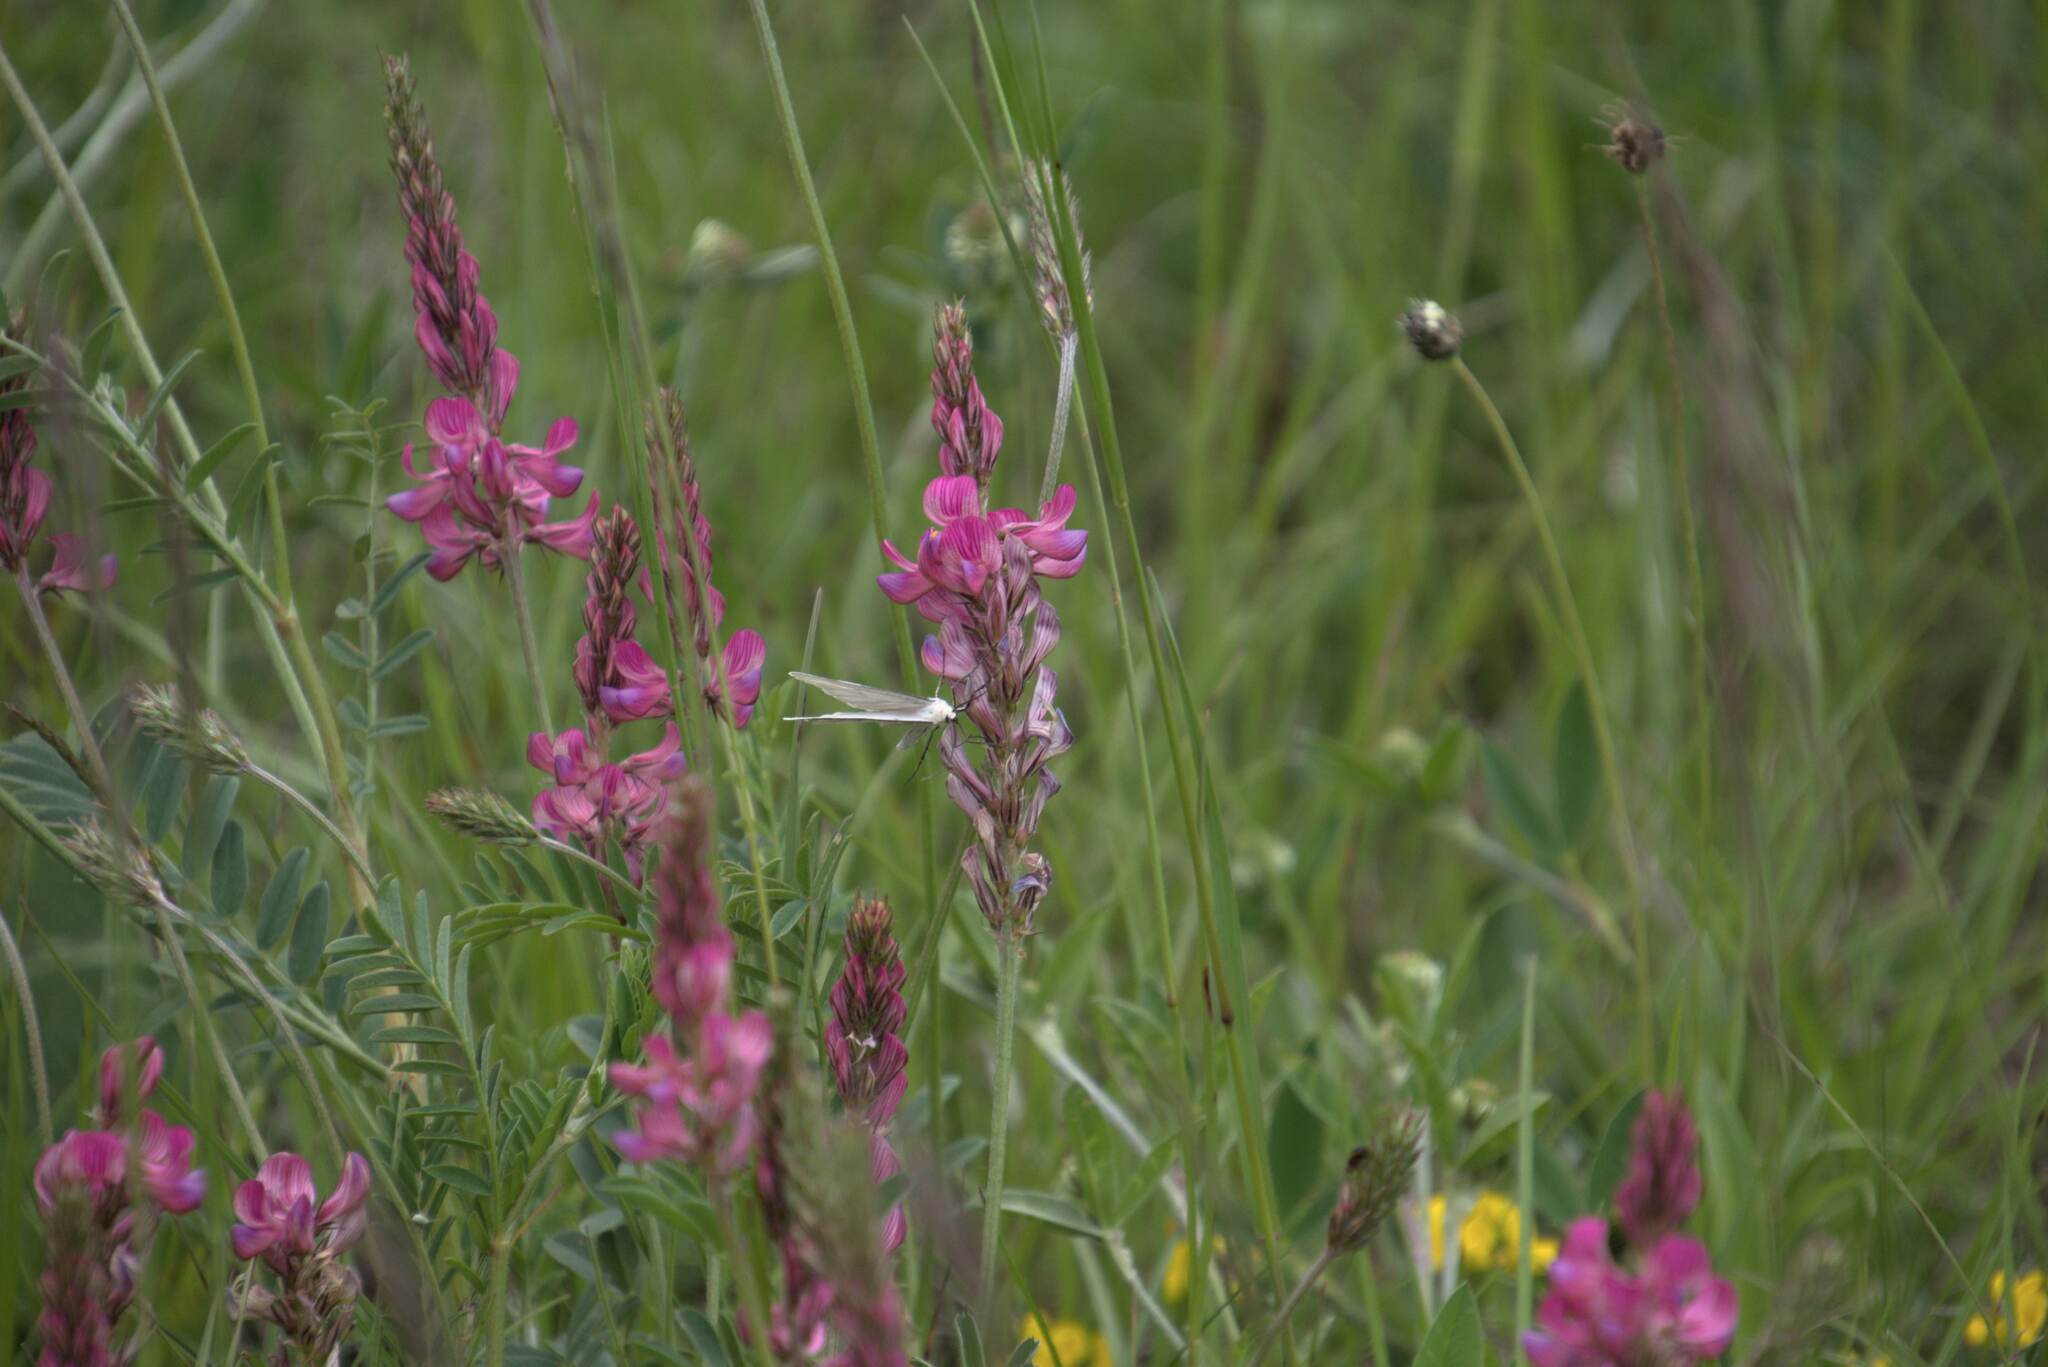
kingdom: Animalia
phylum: Arthropoda
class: Insecta
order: Lepidoptera
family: Geometridae
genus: Siona
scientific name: Siona lineata
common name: Black-veined moth
